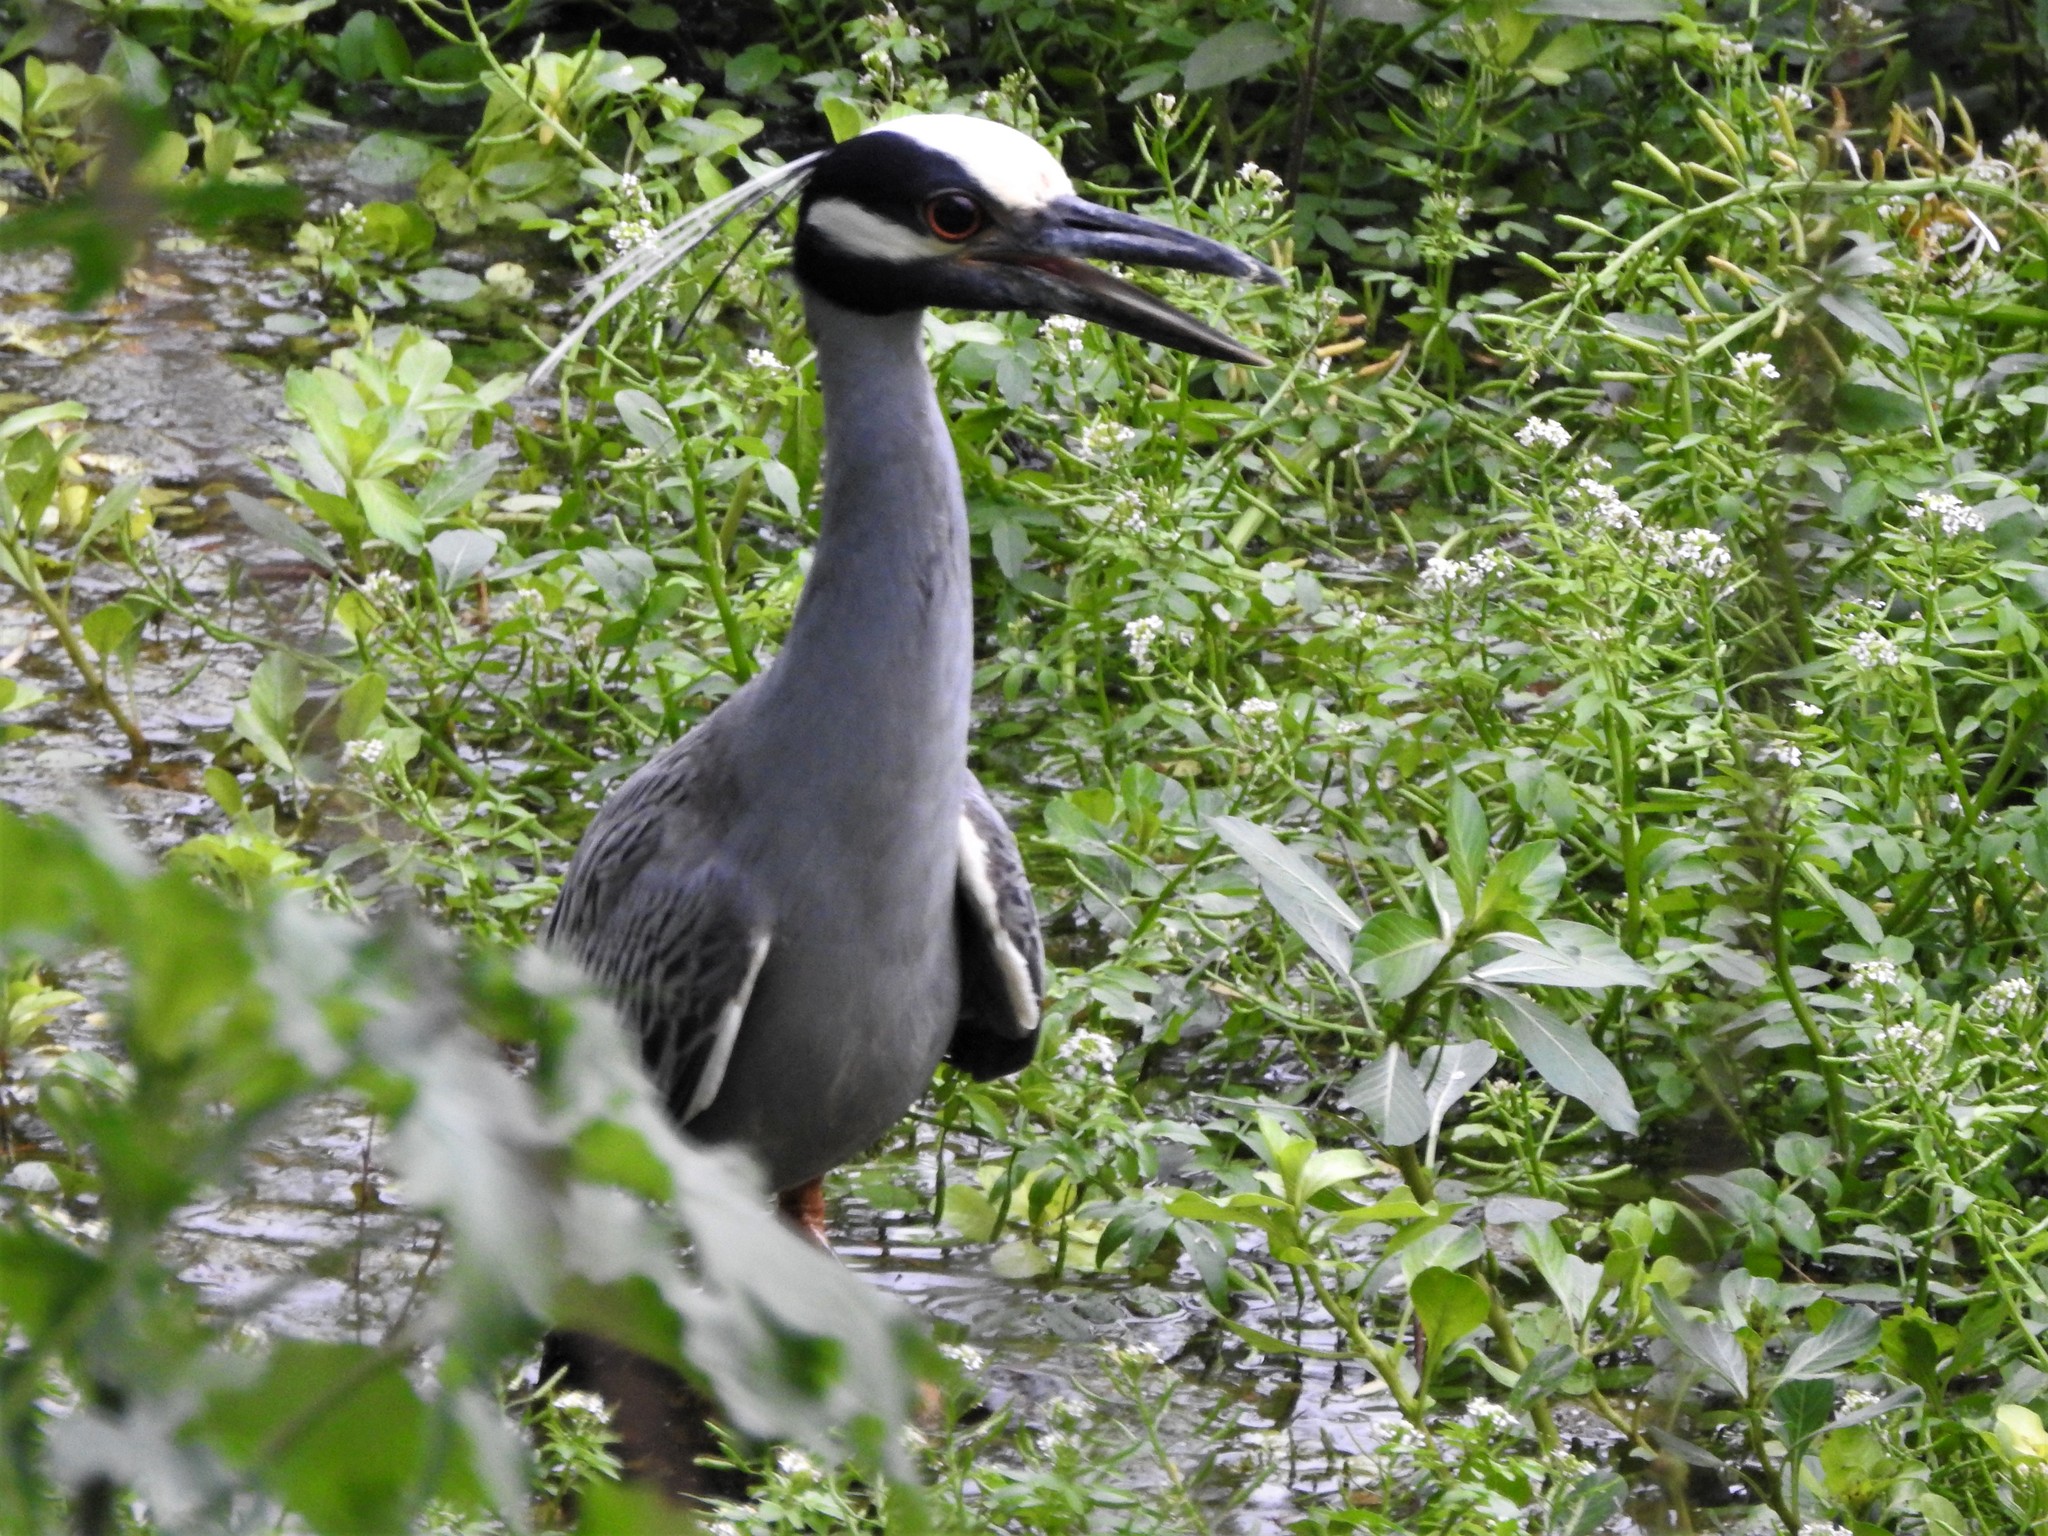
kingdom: Animalia
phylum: Chordata
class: Aves
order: Pelecaniformes
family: Ardeidae
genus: Nyctanassa
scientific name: Nyctanassa violacea
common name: Yellow-crowned night heron
